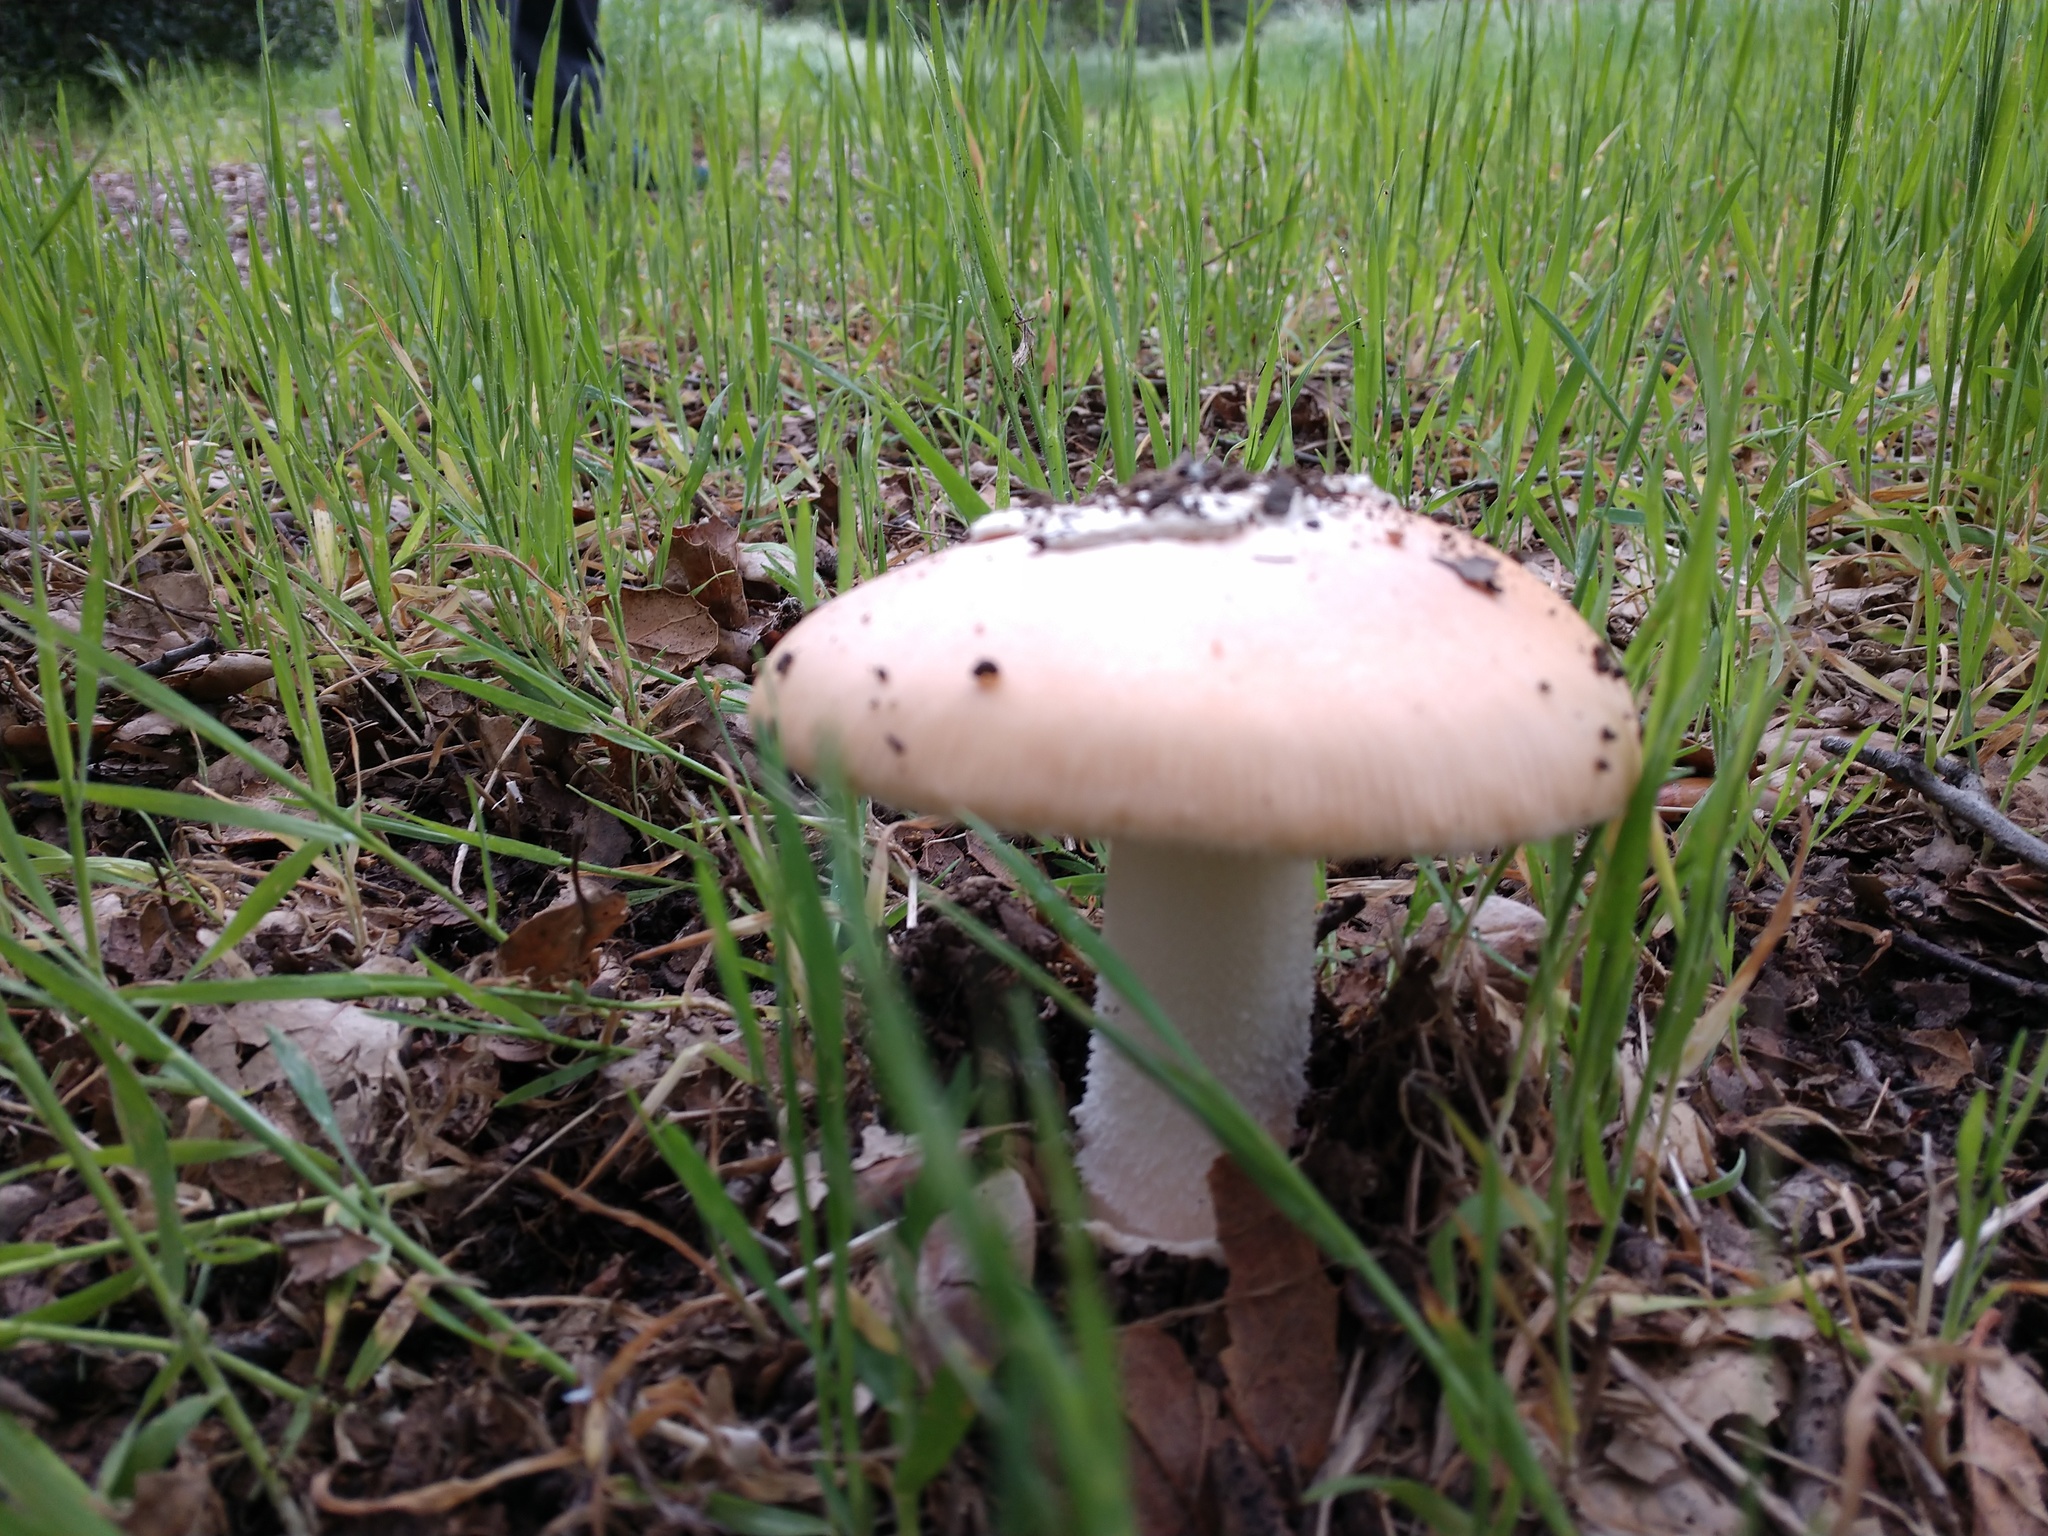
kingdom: Fungi
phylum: Basidiomycota
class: Agaricomycetes
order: Agaricales
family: Amanitaceae
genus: Amanita
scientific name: Amanita velosa
